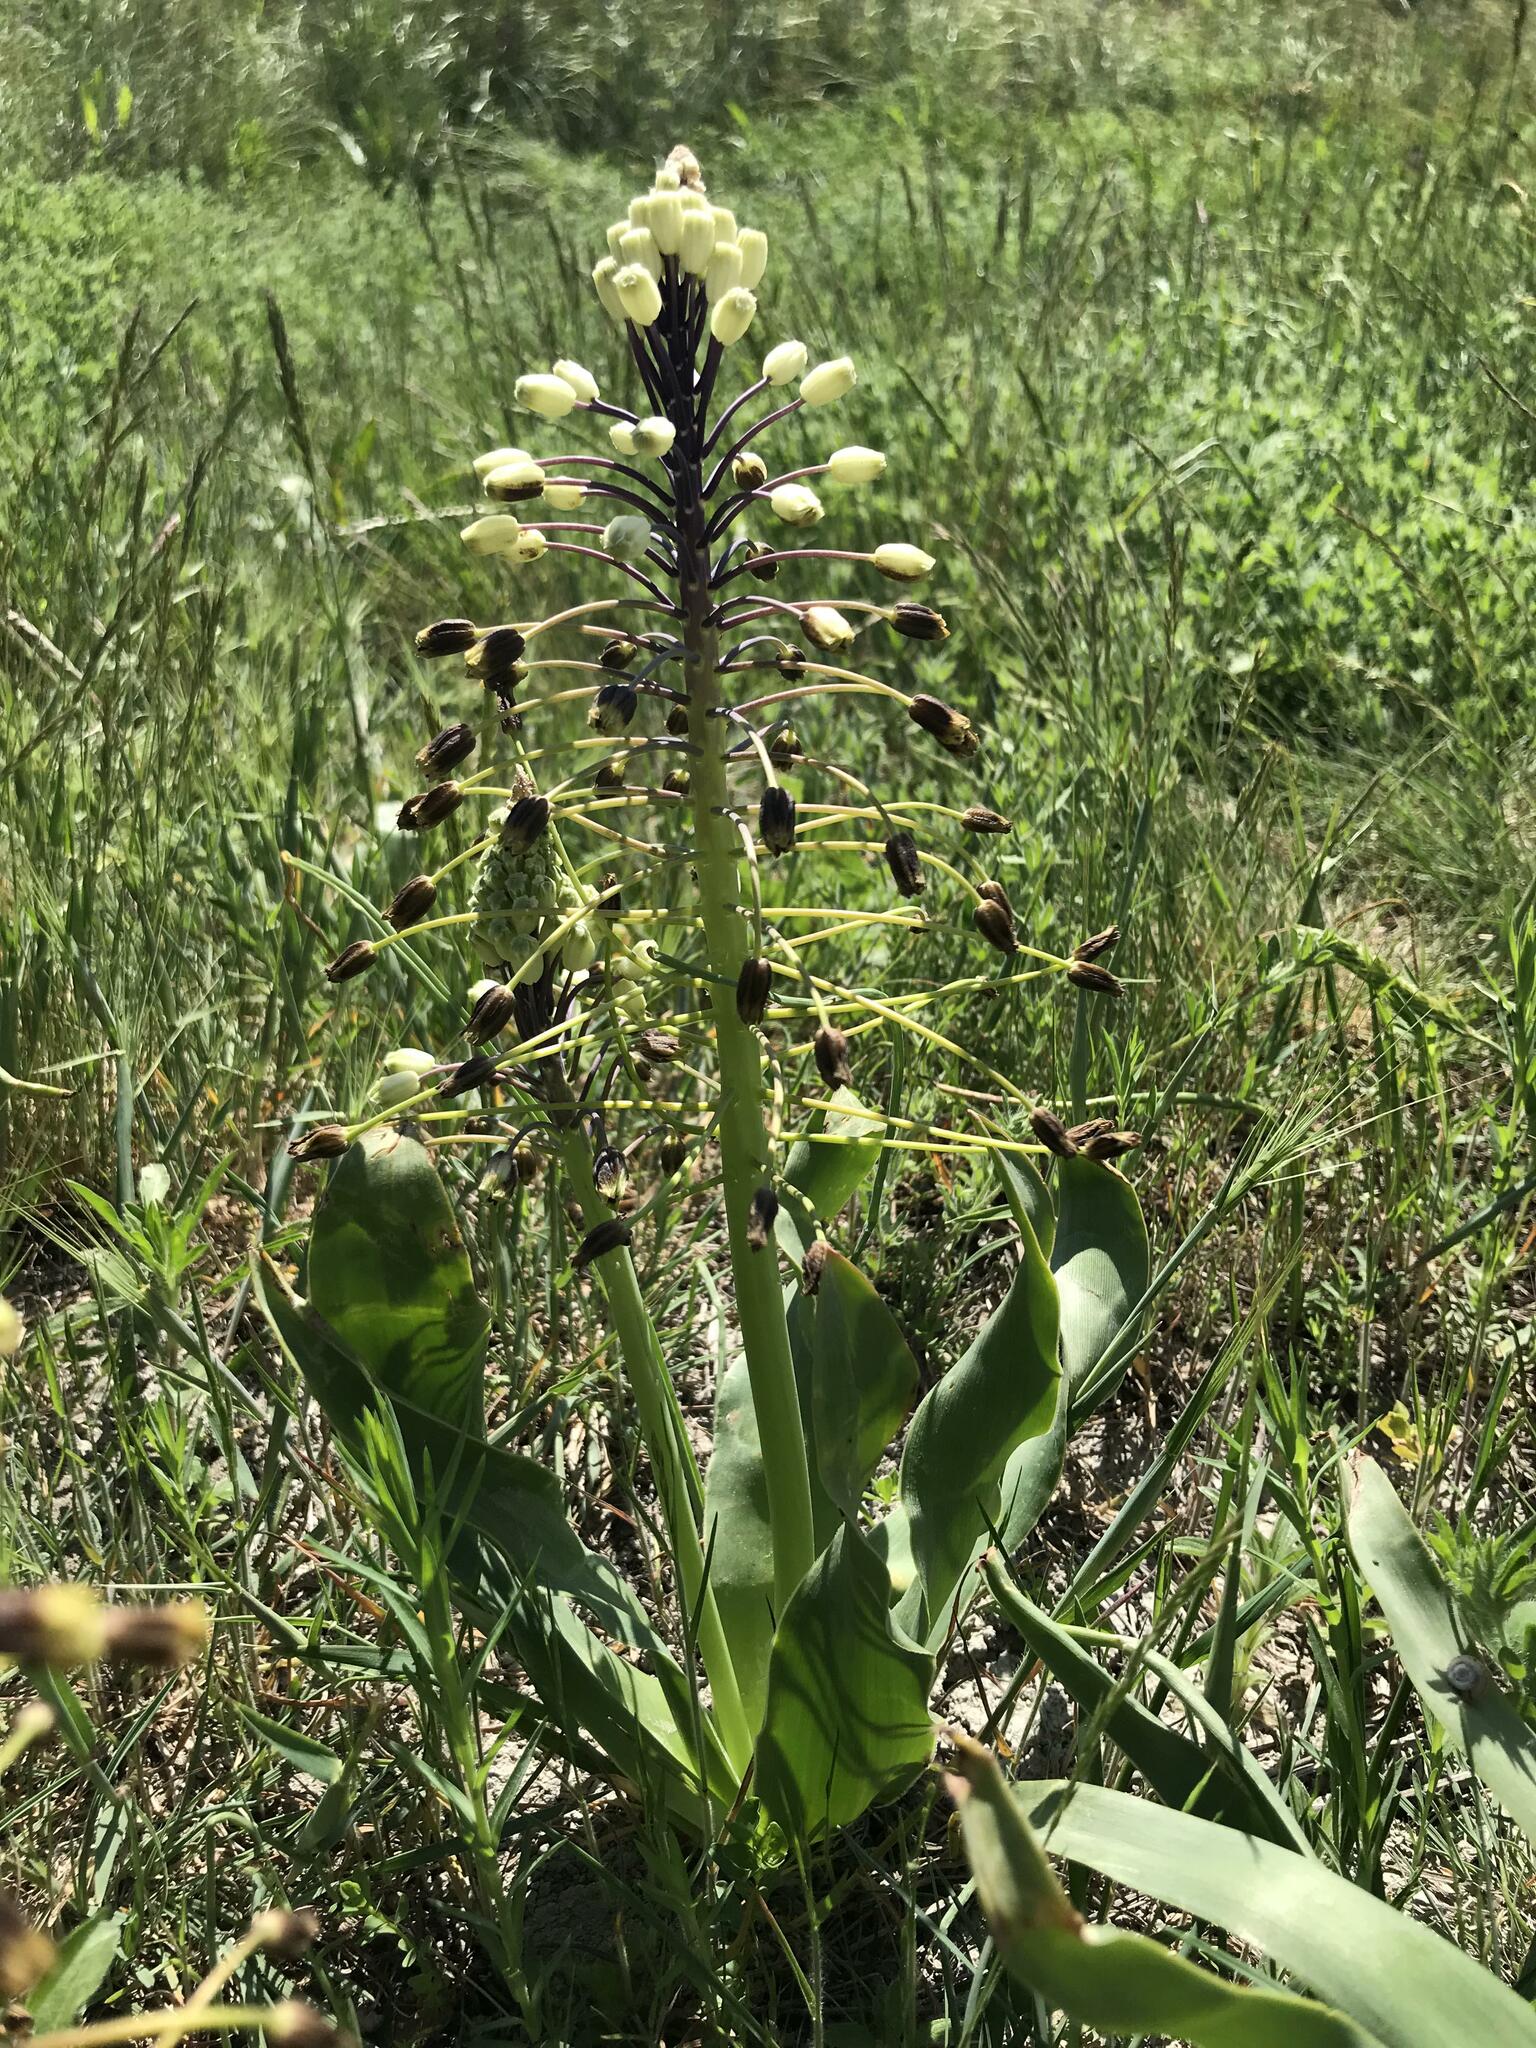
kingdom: Plantae
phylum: Tracheophyta
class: Liliopsida
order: Asparagales
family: Asparagaceae
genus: Bellevalia
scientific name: Bellevalia speciosa
